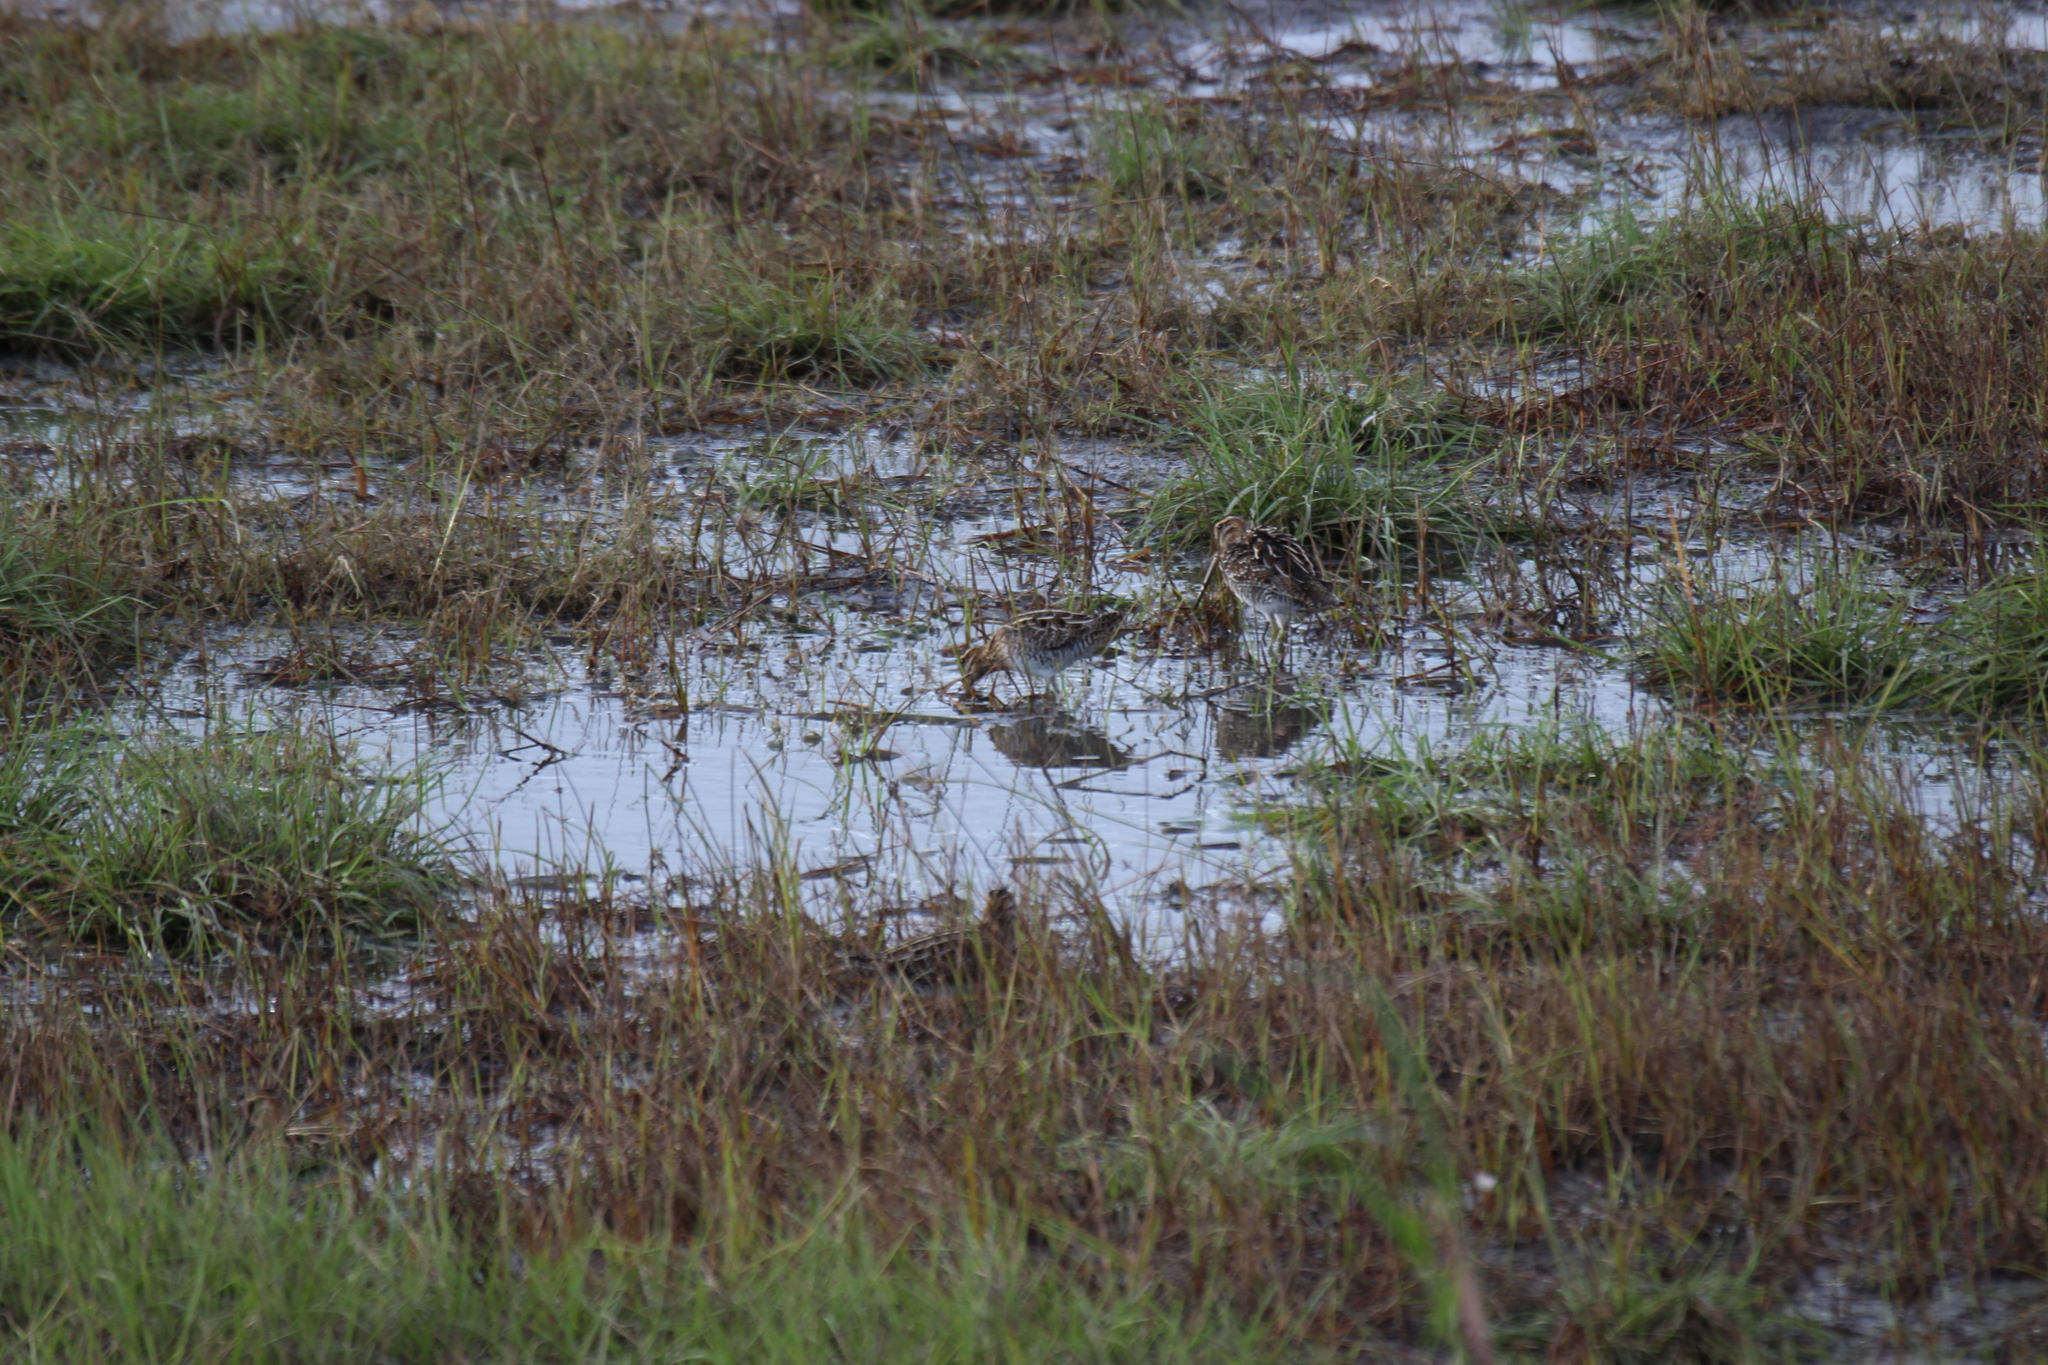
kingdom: Animalia
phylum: Chordata
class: Aves
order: Charadriiformes
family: Scolopacidae
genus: Gallinago
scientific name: Gallinago delicata
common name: Wilson's snipe
